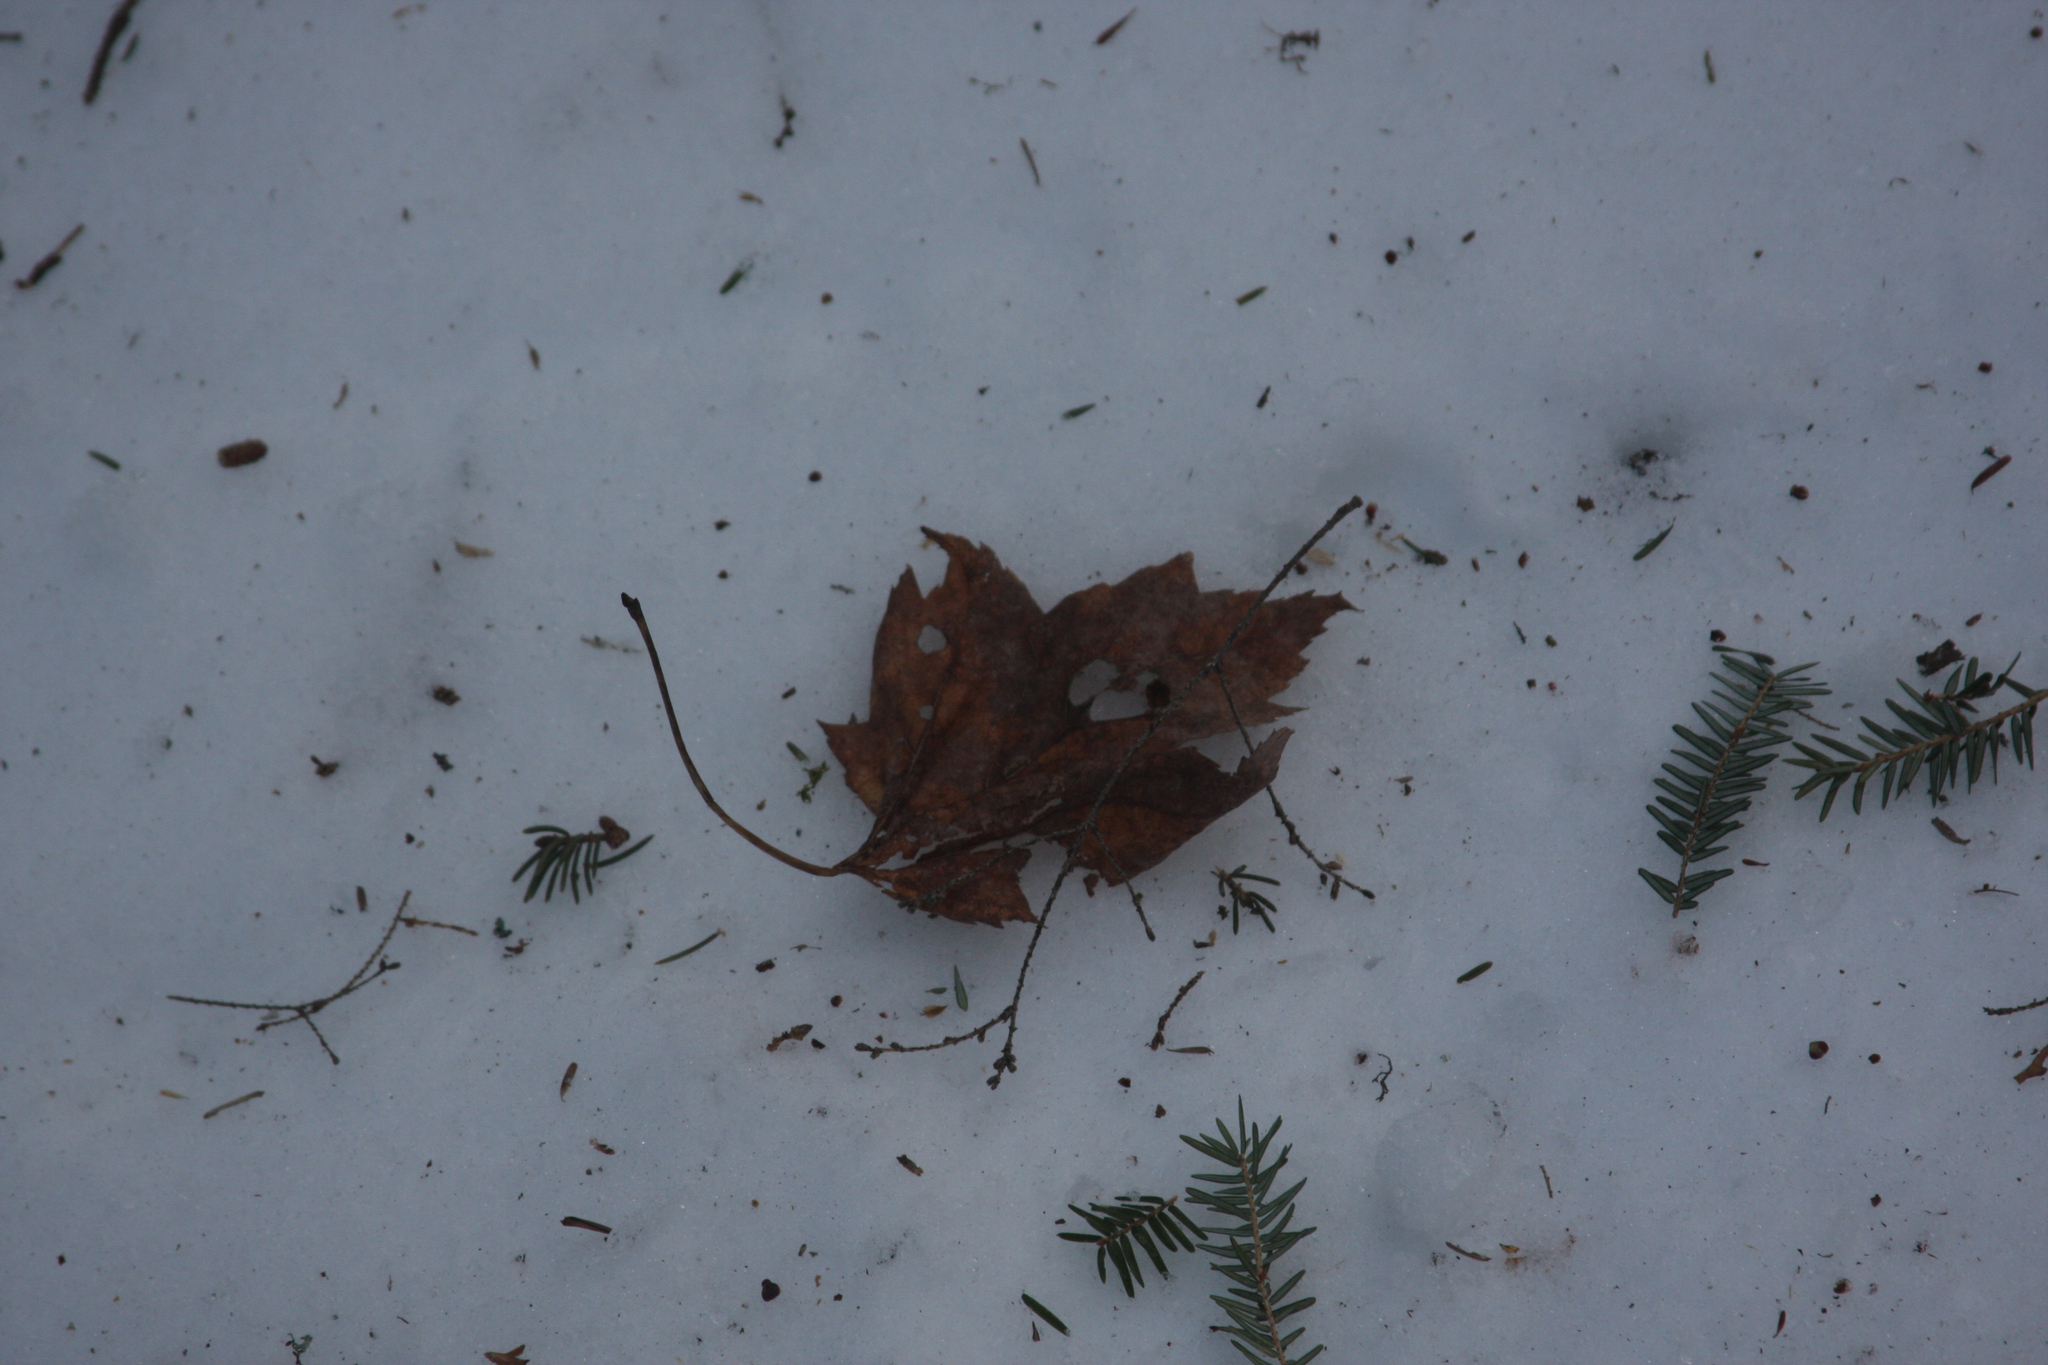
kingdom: Plantae
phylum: Tracheophyta
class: Magnoliopsida
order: Sapindales
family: Sapindaceae
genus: Acer
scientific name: Acer rubrum
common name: Red maple
